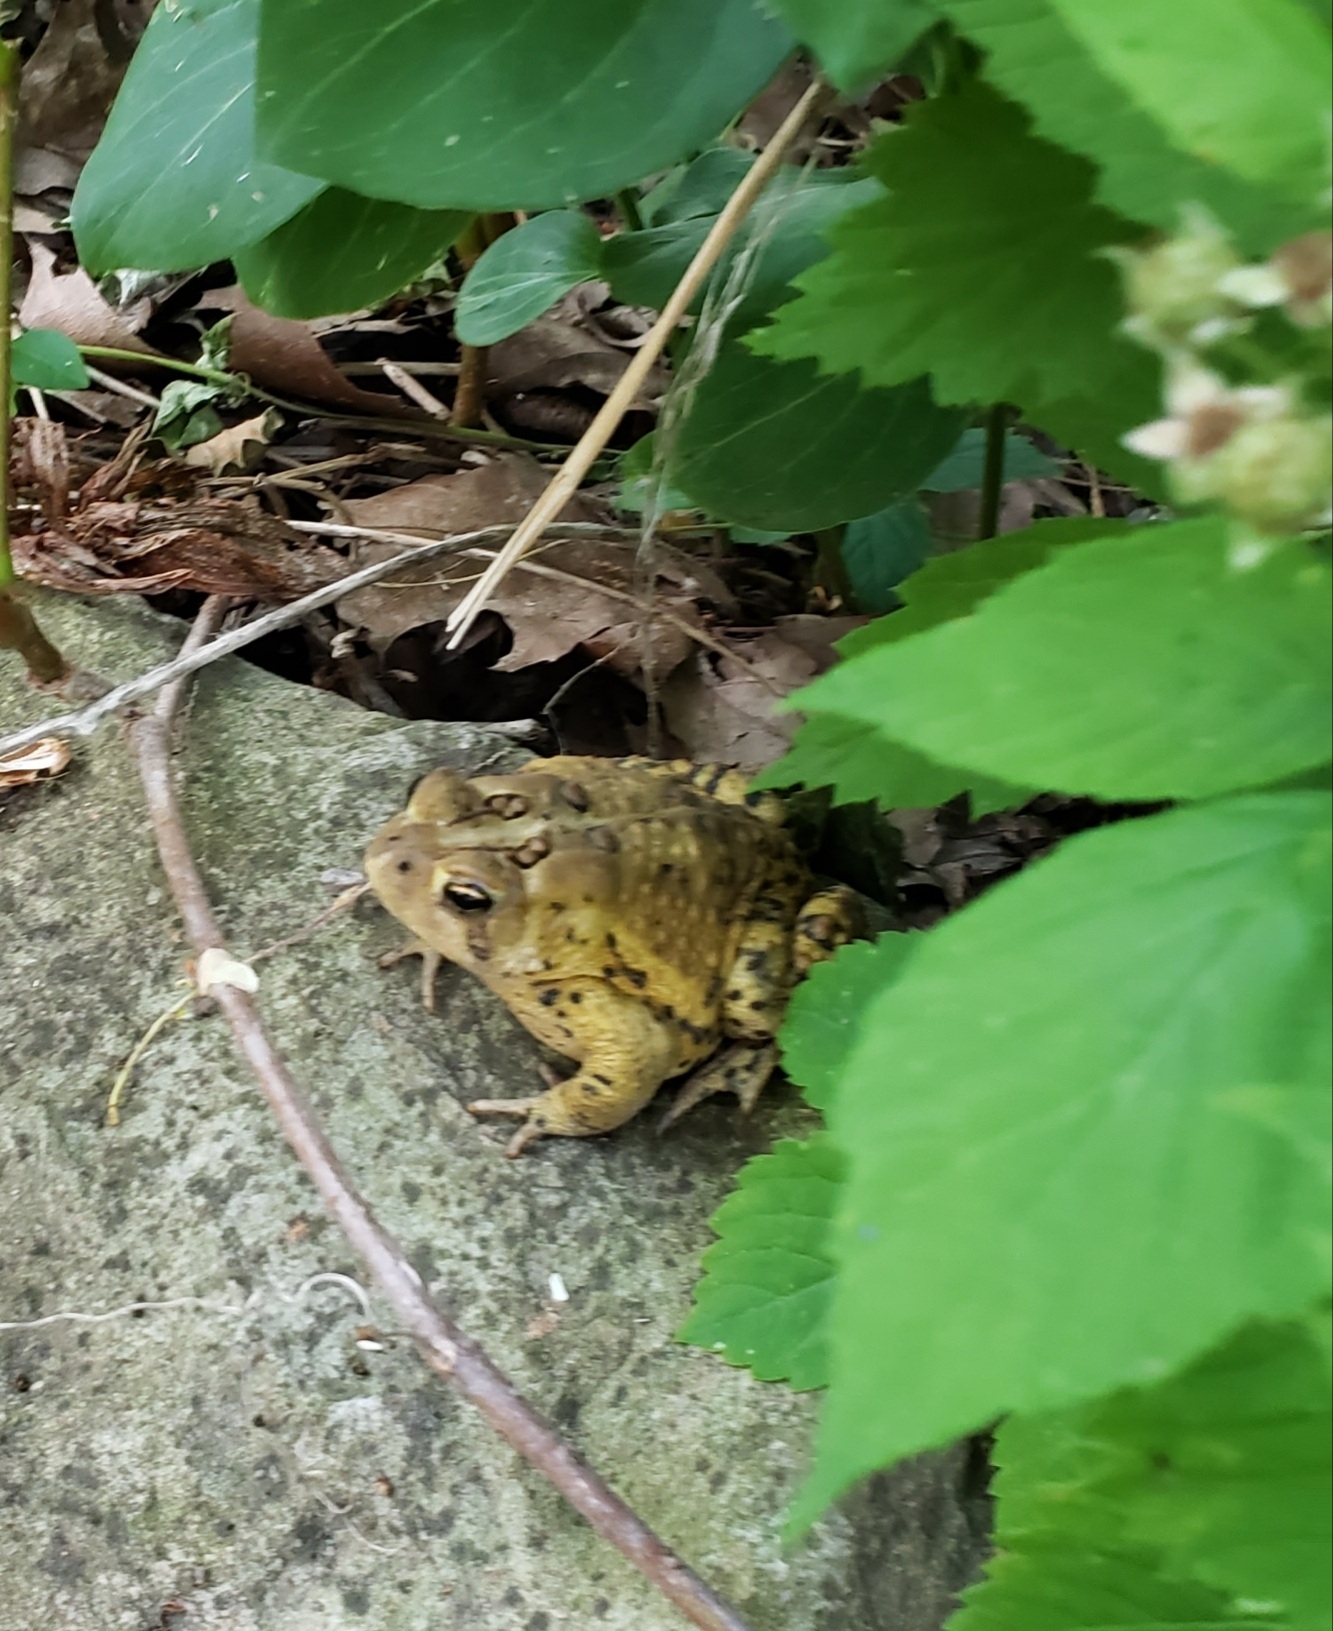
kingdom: Animalia
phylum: Chordata
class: Amphibia
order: Anura
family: Bufonidae
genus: Anaxyrus
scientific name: Anaxyrus americanus
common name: American toad
